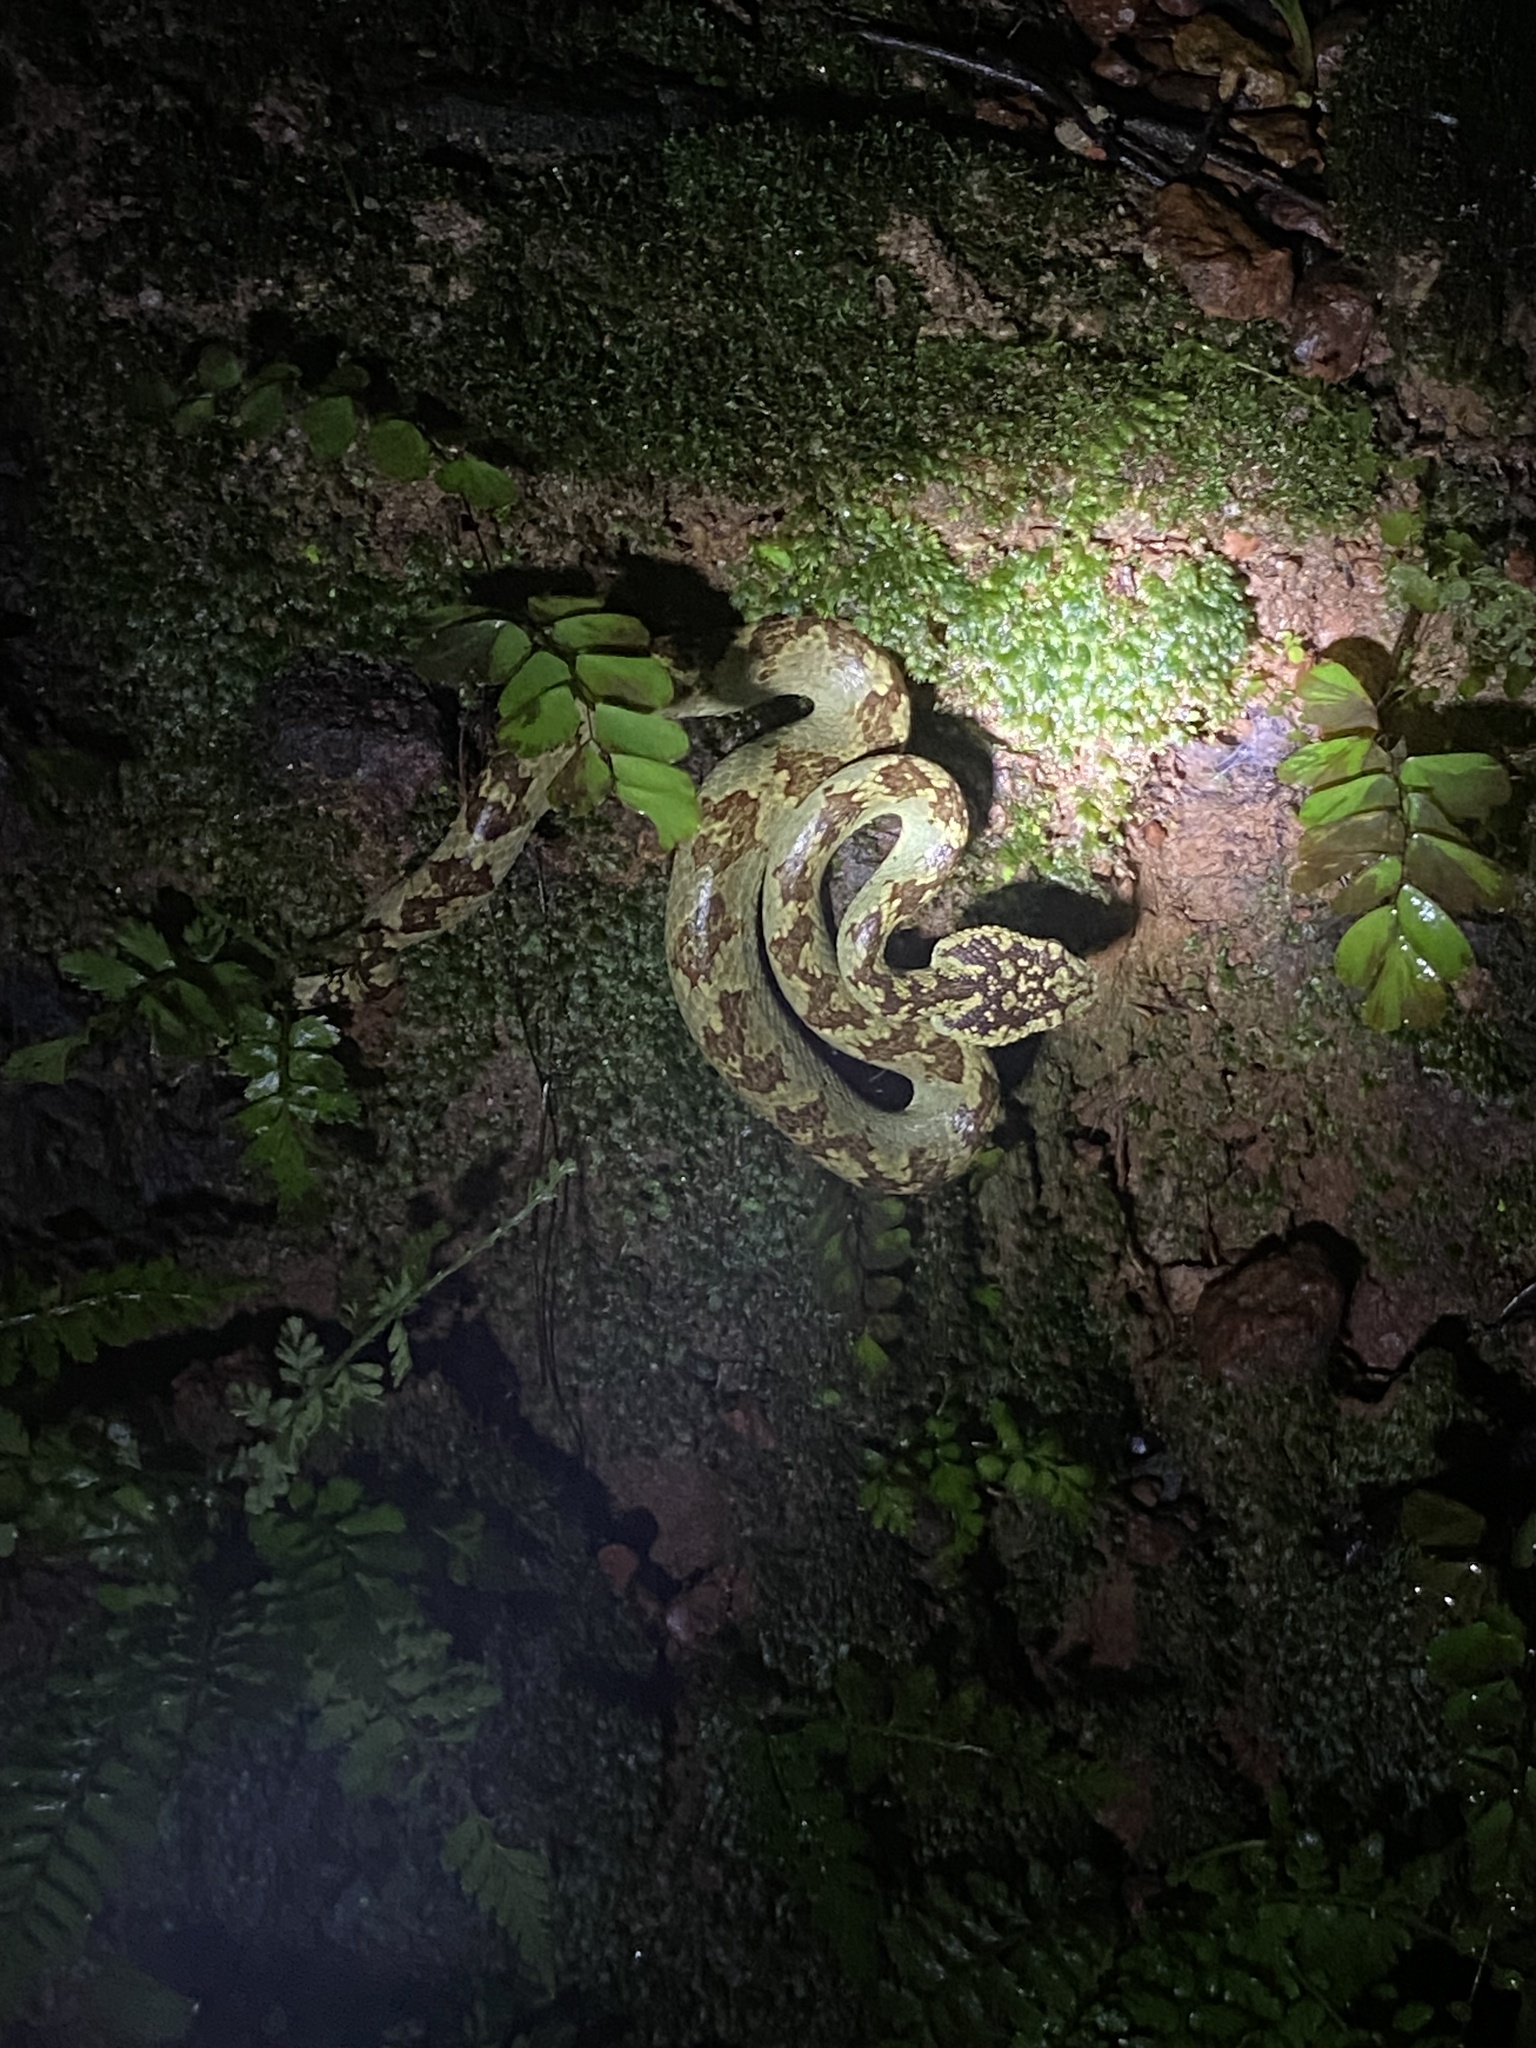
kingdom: Animalia
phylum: Chordata
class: Squamata
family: Viperidae
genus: Craspedocephalus
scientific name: Craspedocephalus malabaricus
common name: Malabarian pit viper
